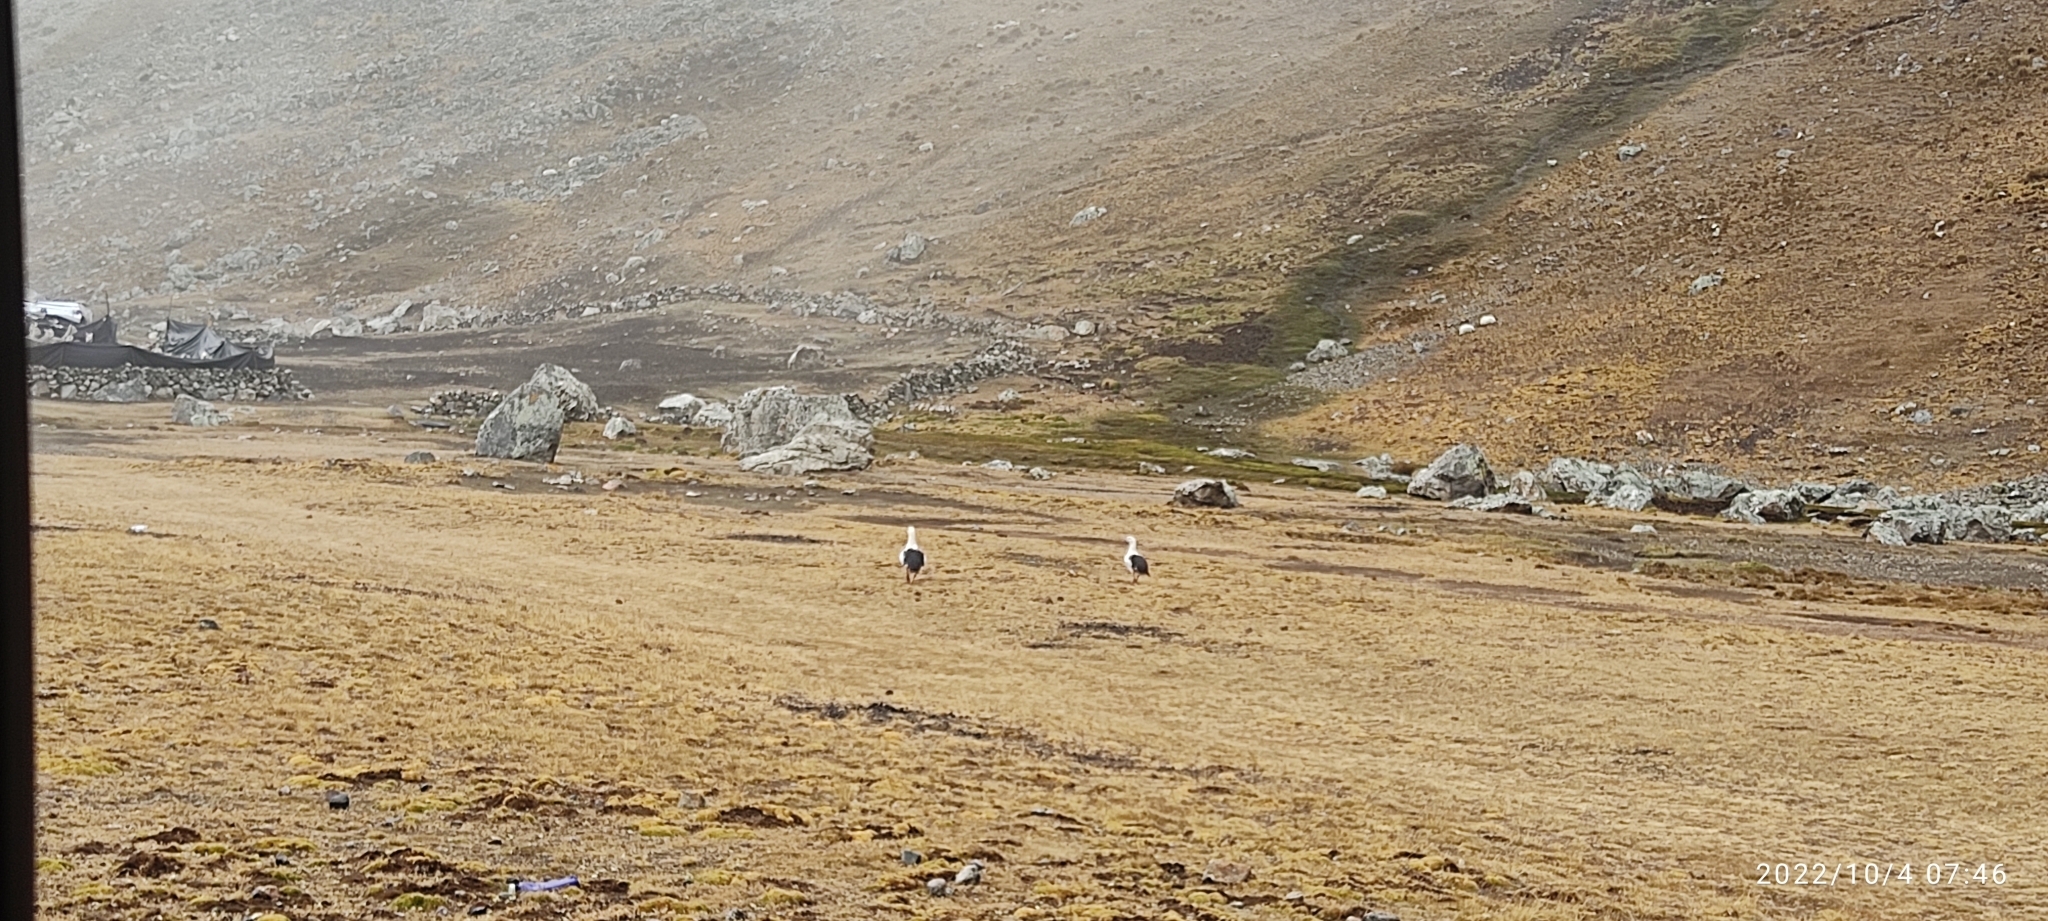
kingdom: Animalia
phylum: Chordata
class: Aves
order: Anseriformes
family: Anatidae
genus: Chloephaga
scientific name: Chloephaga melanoptera
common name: Andean goose
